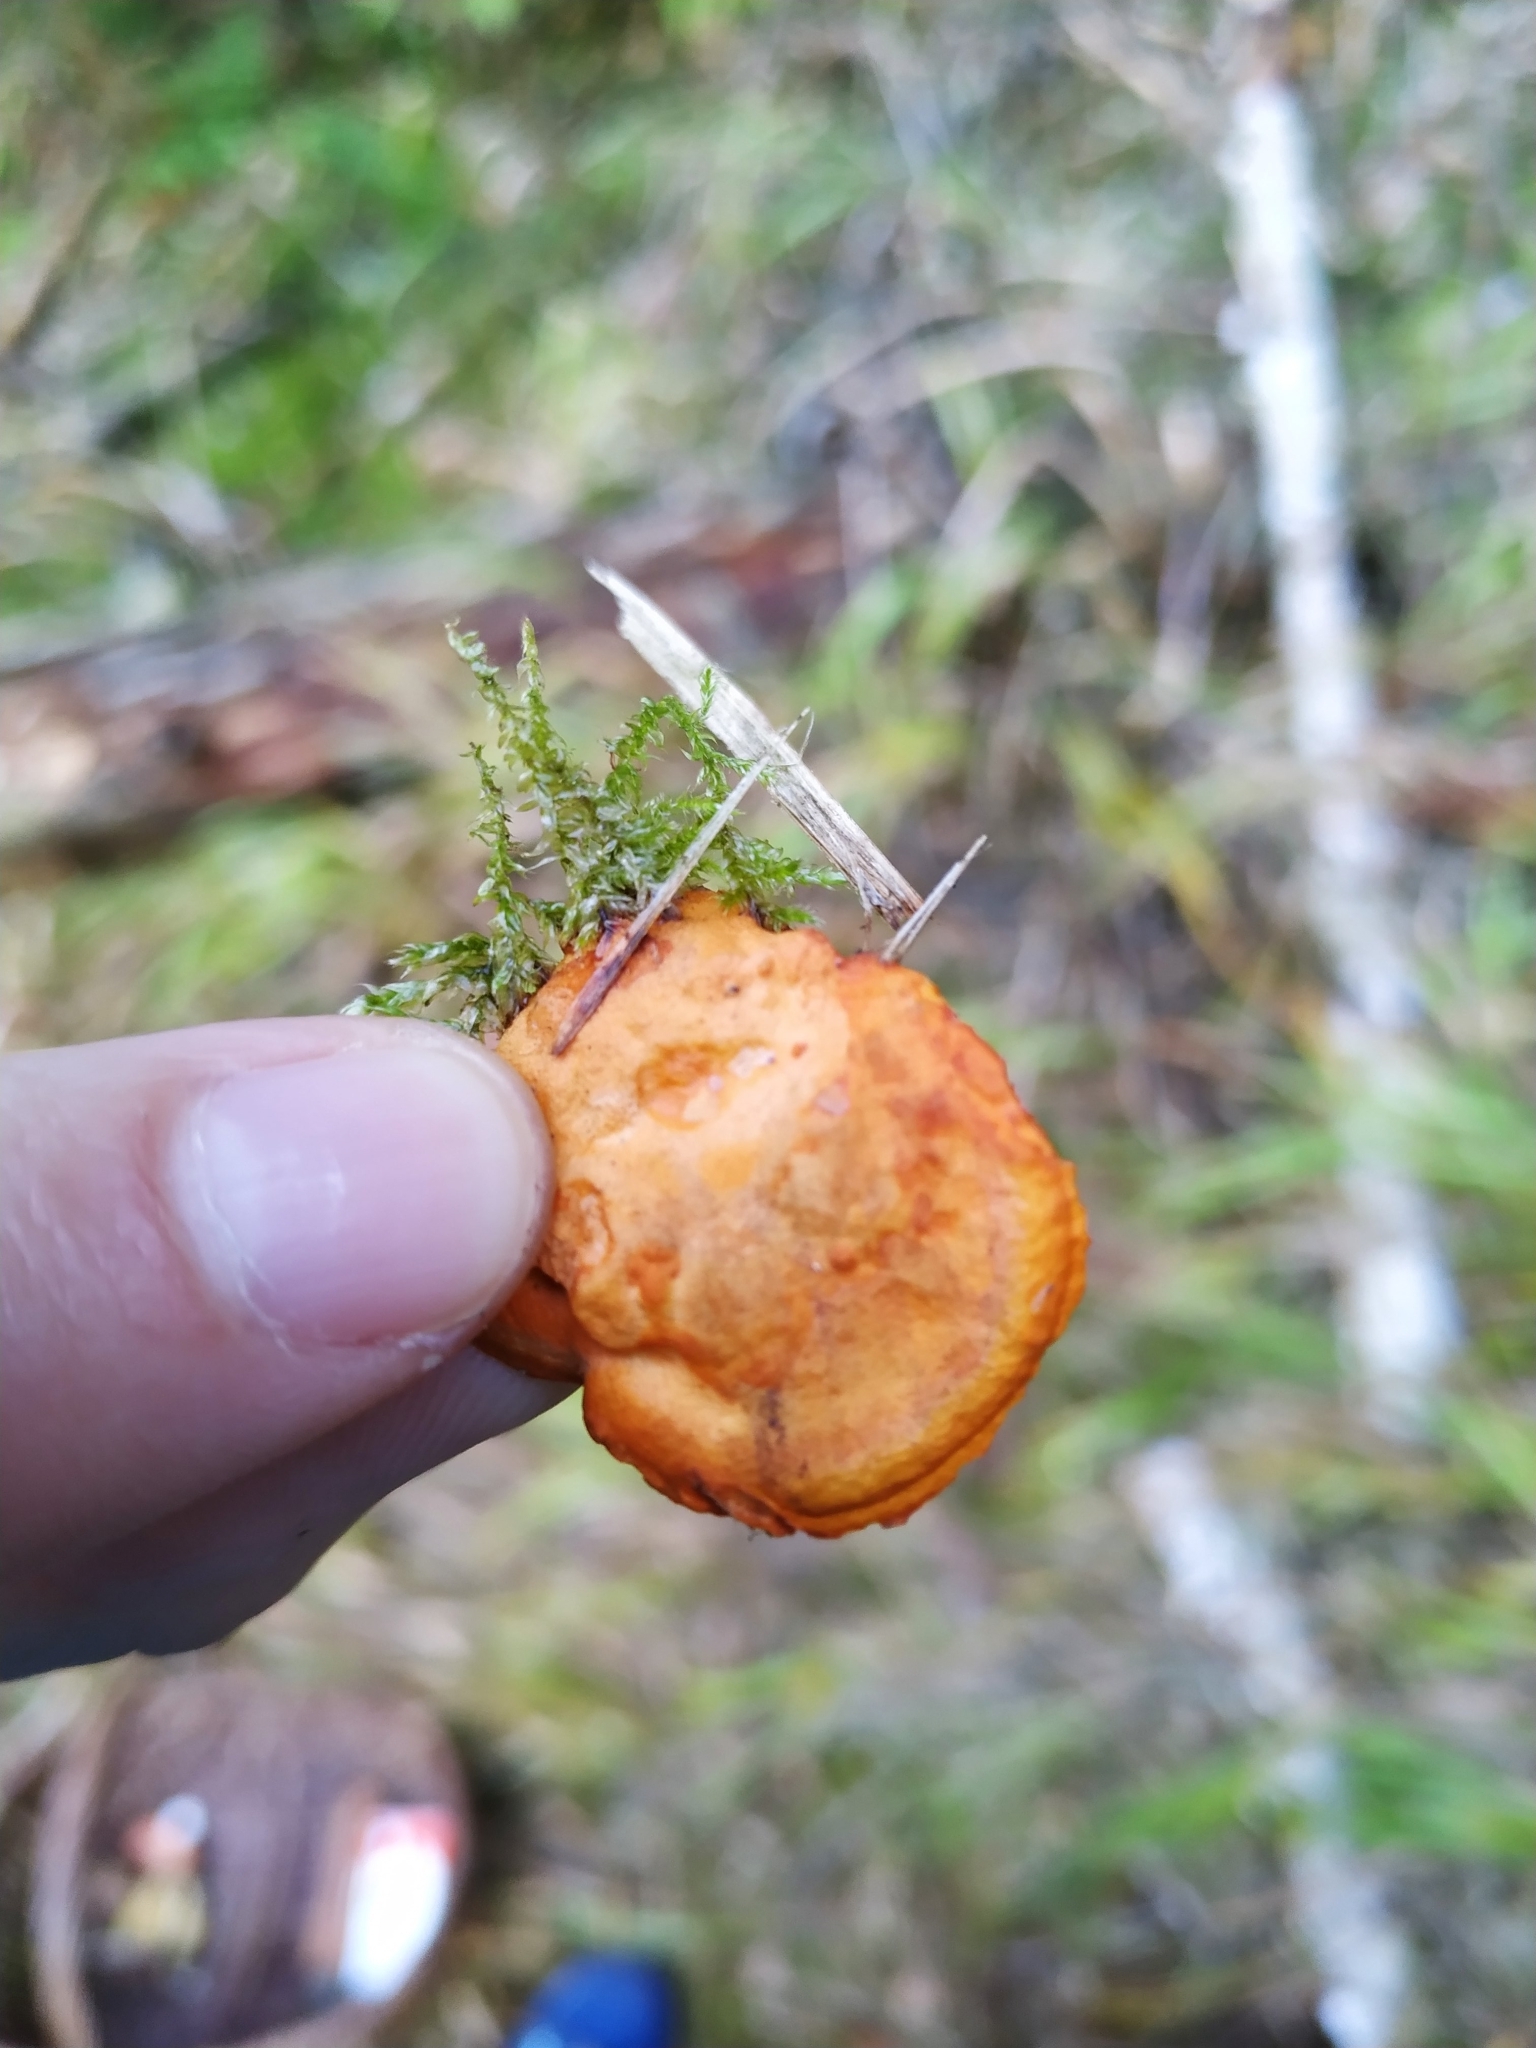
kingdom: Fungi
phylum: Basidiomycota
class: Agaricomycetes
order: Polyporales
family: Polyporaceae
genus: Trametes
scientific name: Trametes cinnabarina
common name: Northern cinnabar polypore
